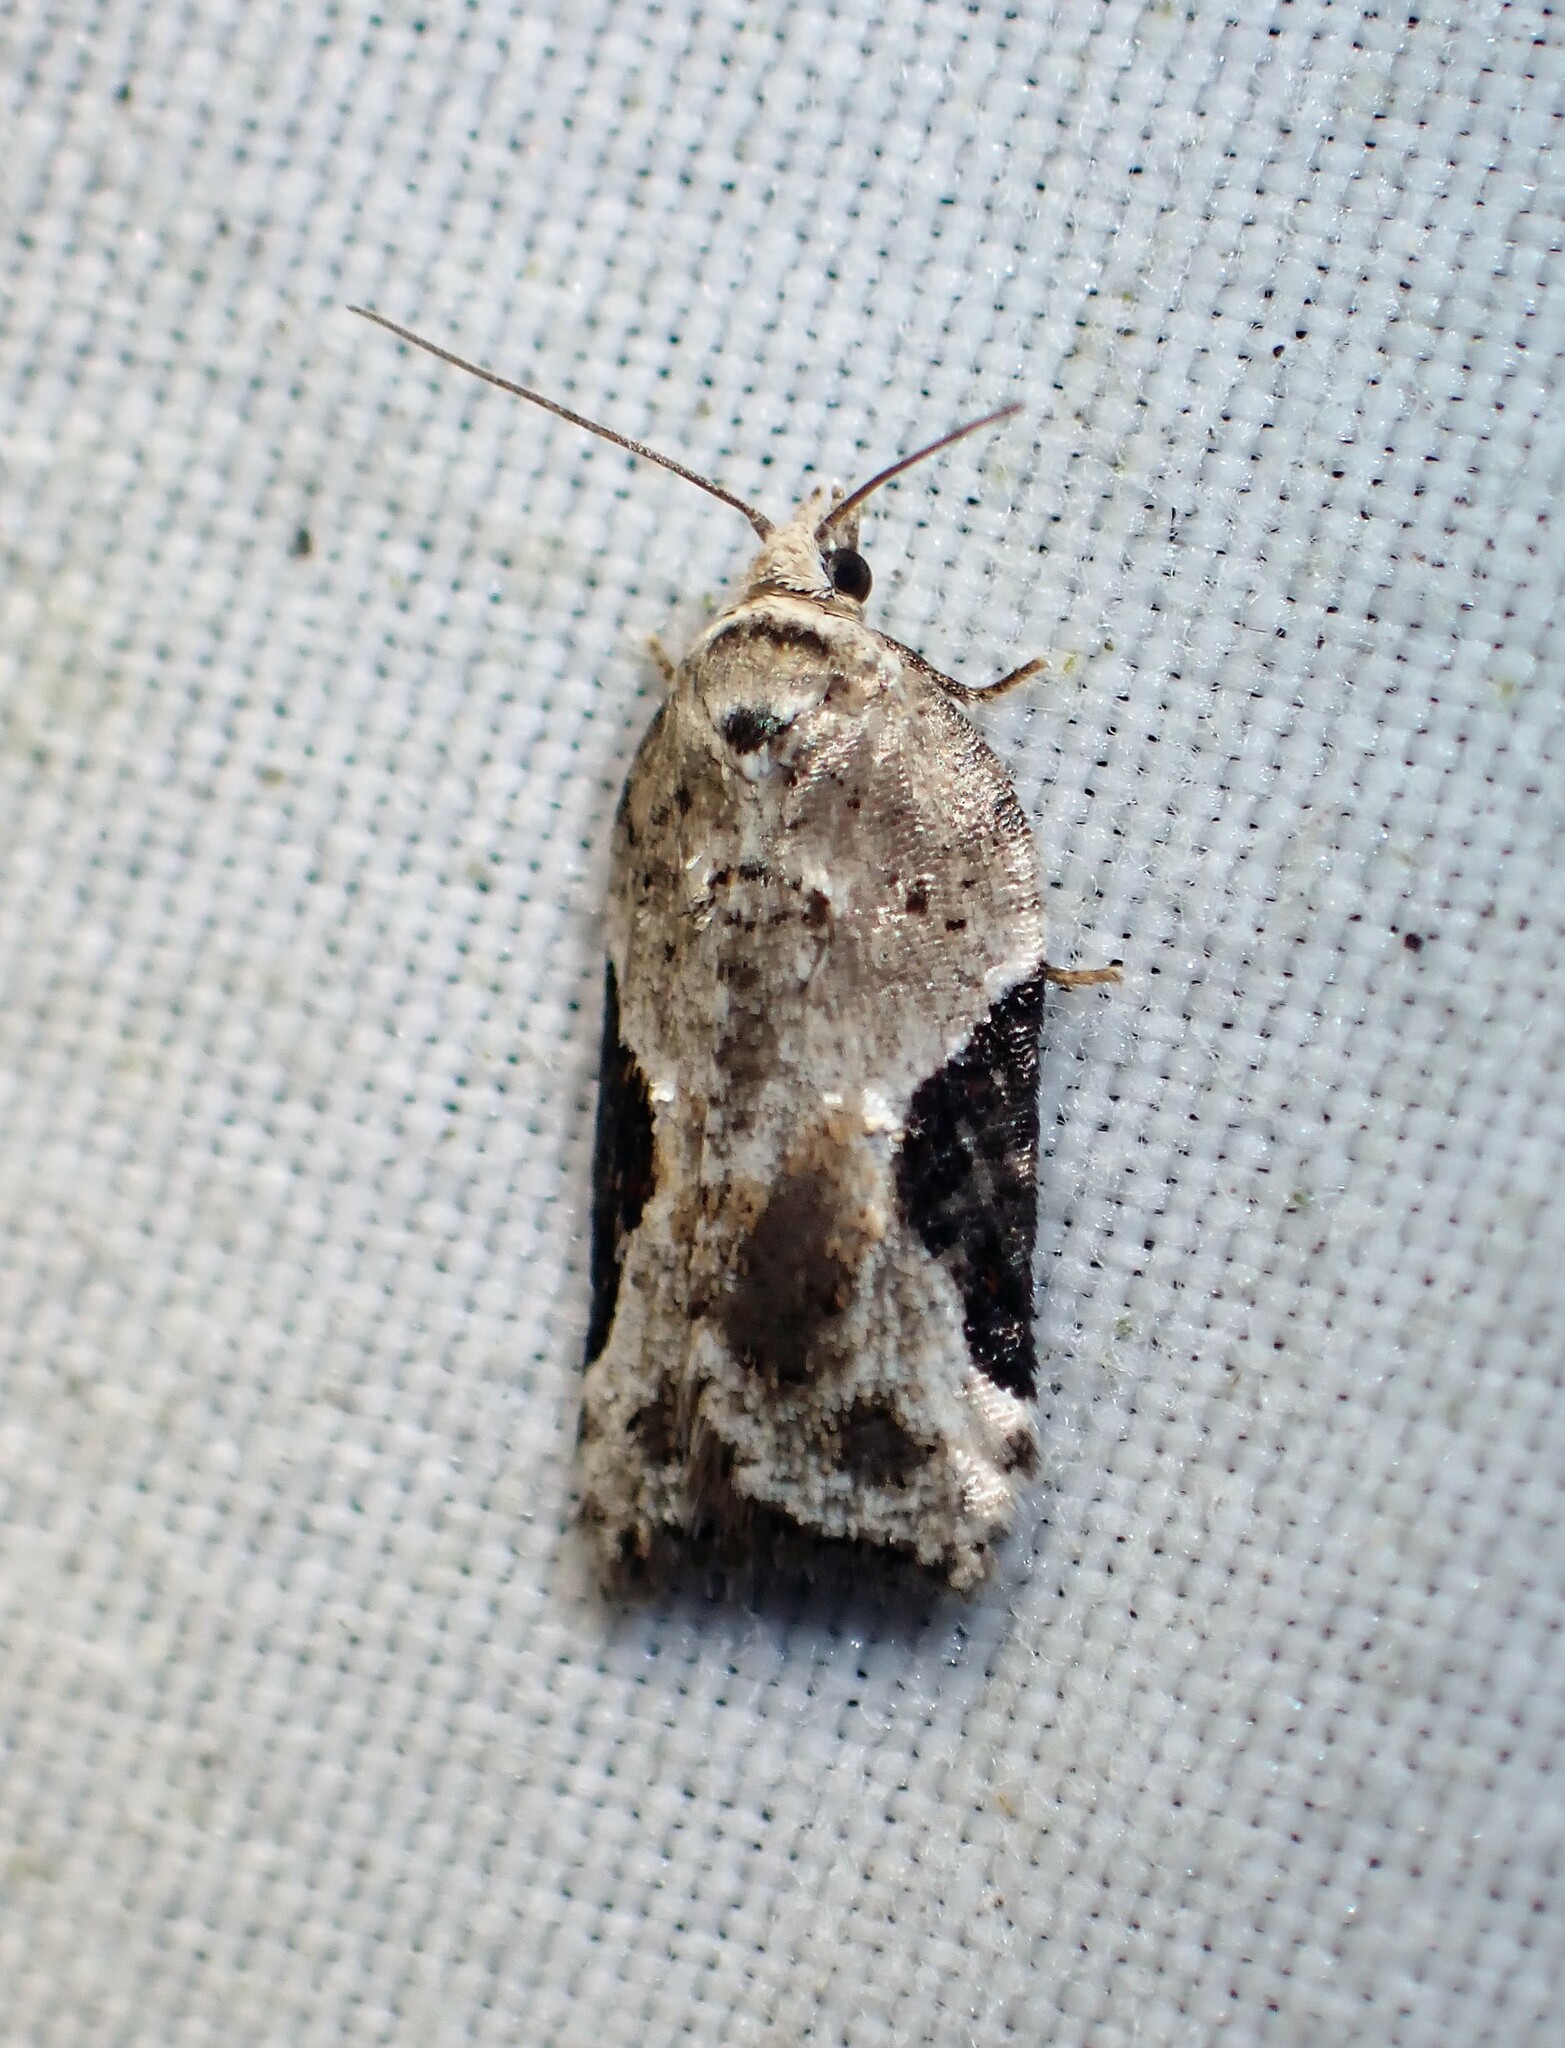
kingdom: Animalia
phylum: Arthropoda
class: Insecta
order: Lepidoptera
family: Tortricidae
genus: Acleris
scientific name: Acleris forbesana
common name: Forbes' acleris moth
